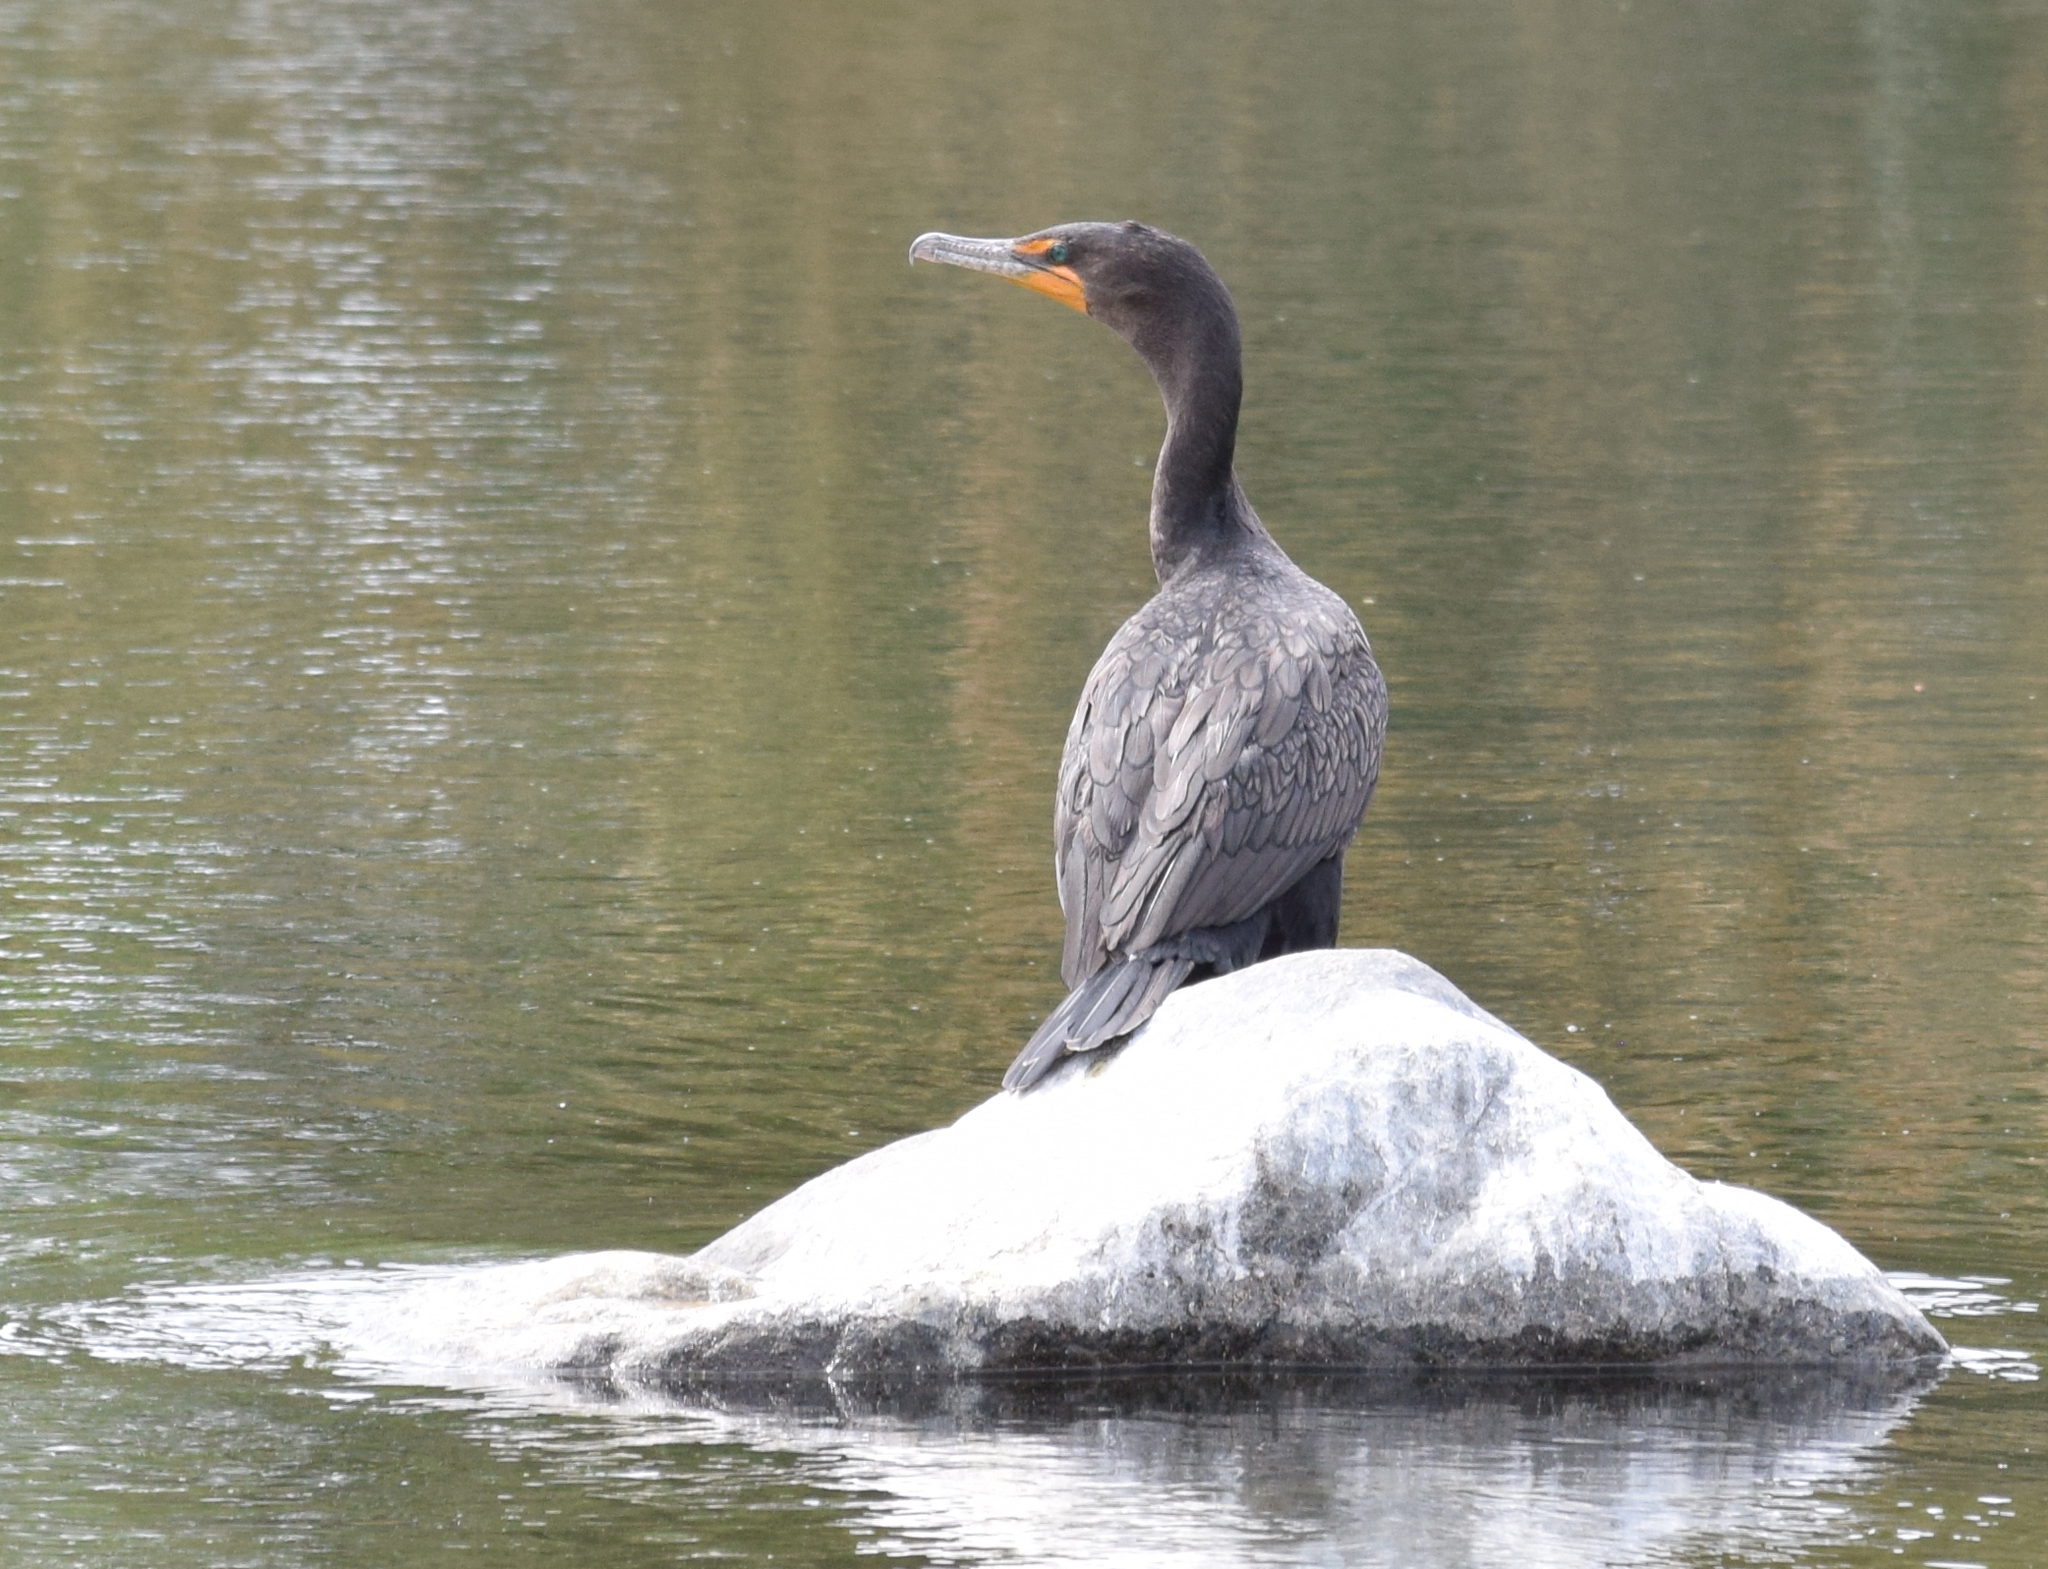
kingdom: Animalia
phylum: Chordata
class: Aves
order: Suliformes
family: Phalacrocoracidae
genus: Phalacrocorax
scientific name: Phalacrocorax auritus
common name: Double-crested cormorant
